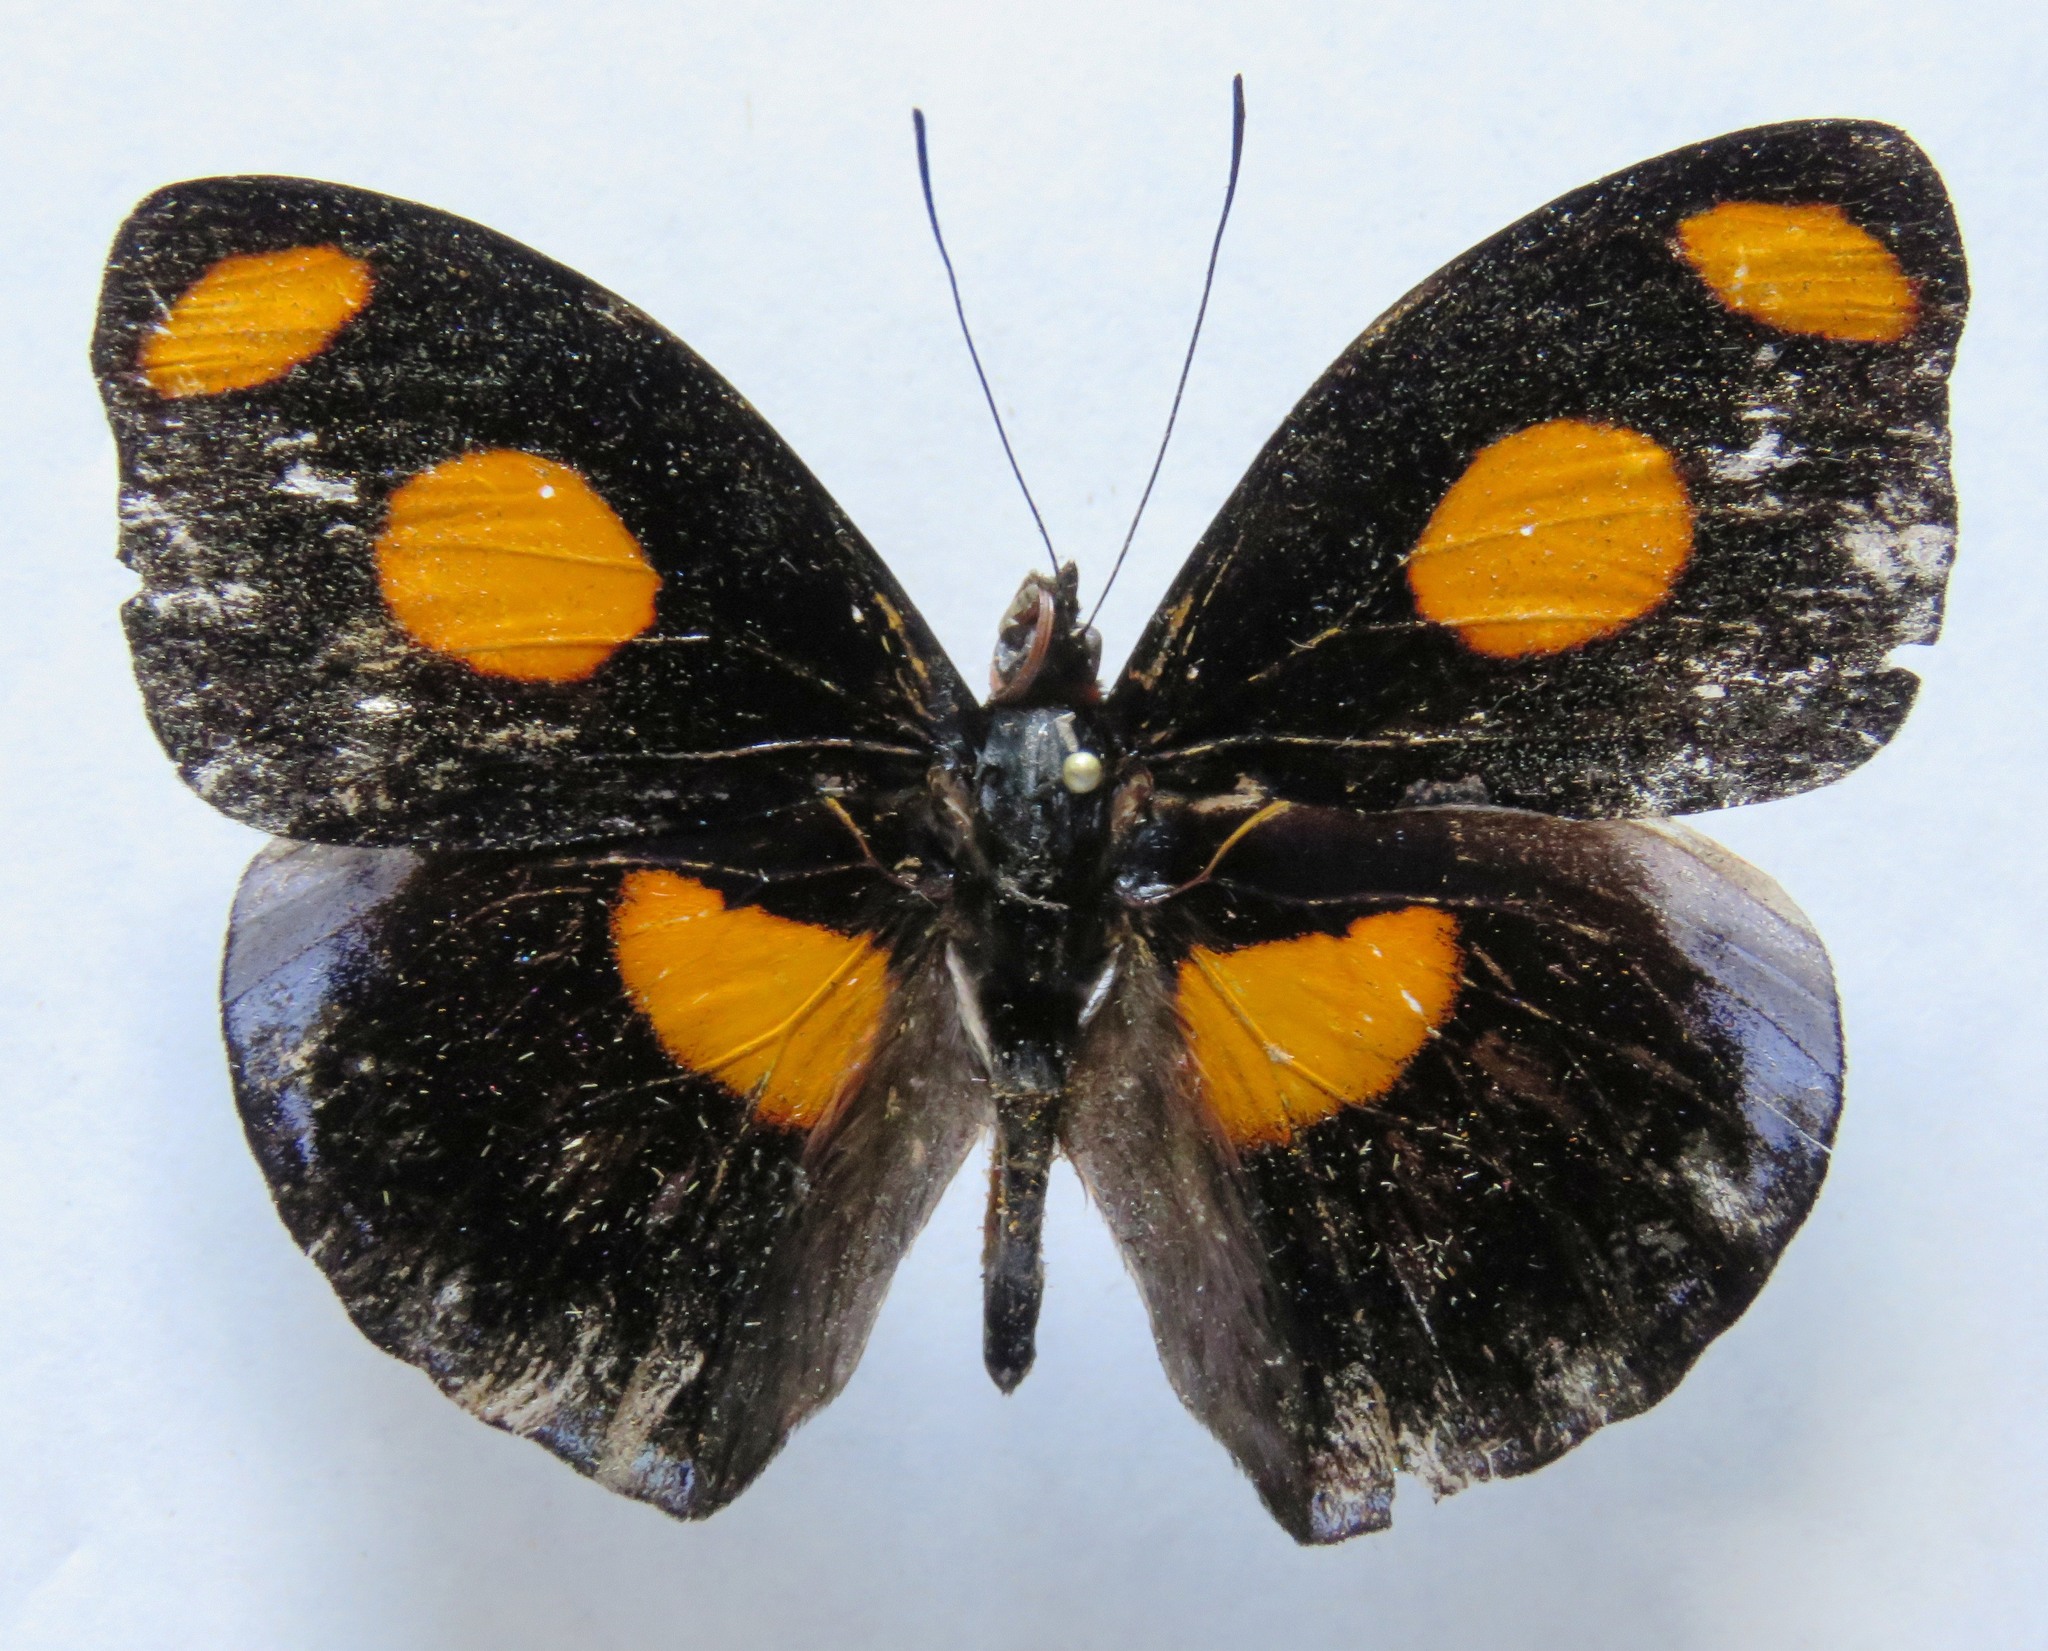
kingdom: Animalia
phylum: Arthropoda
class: Insecta
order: Lepidoptera
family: Nymphalidae
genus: Catonephele
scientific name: Catonephele numilia
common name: Blue-frosted banner
